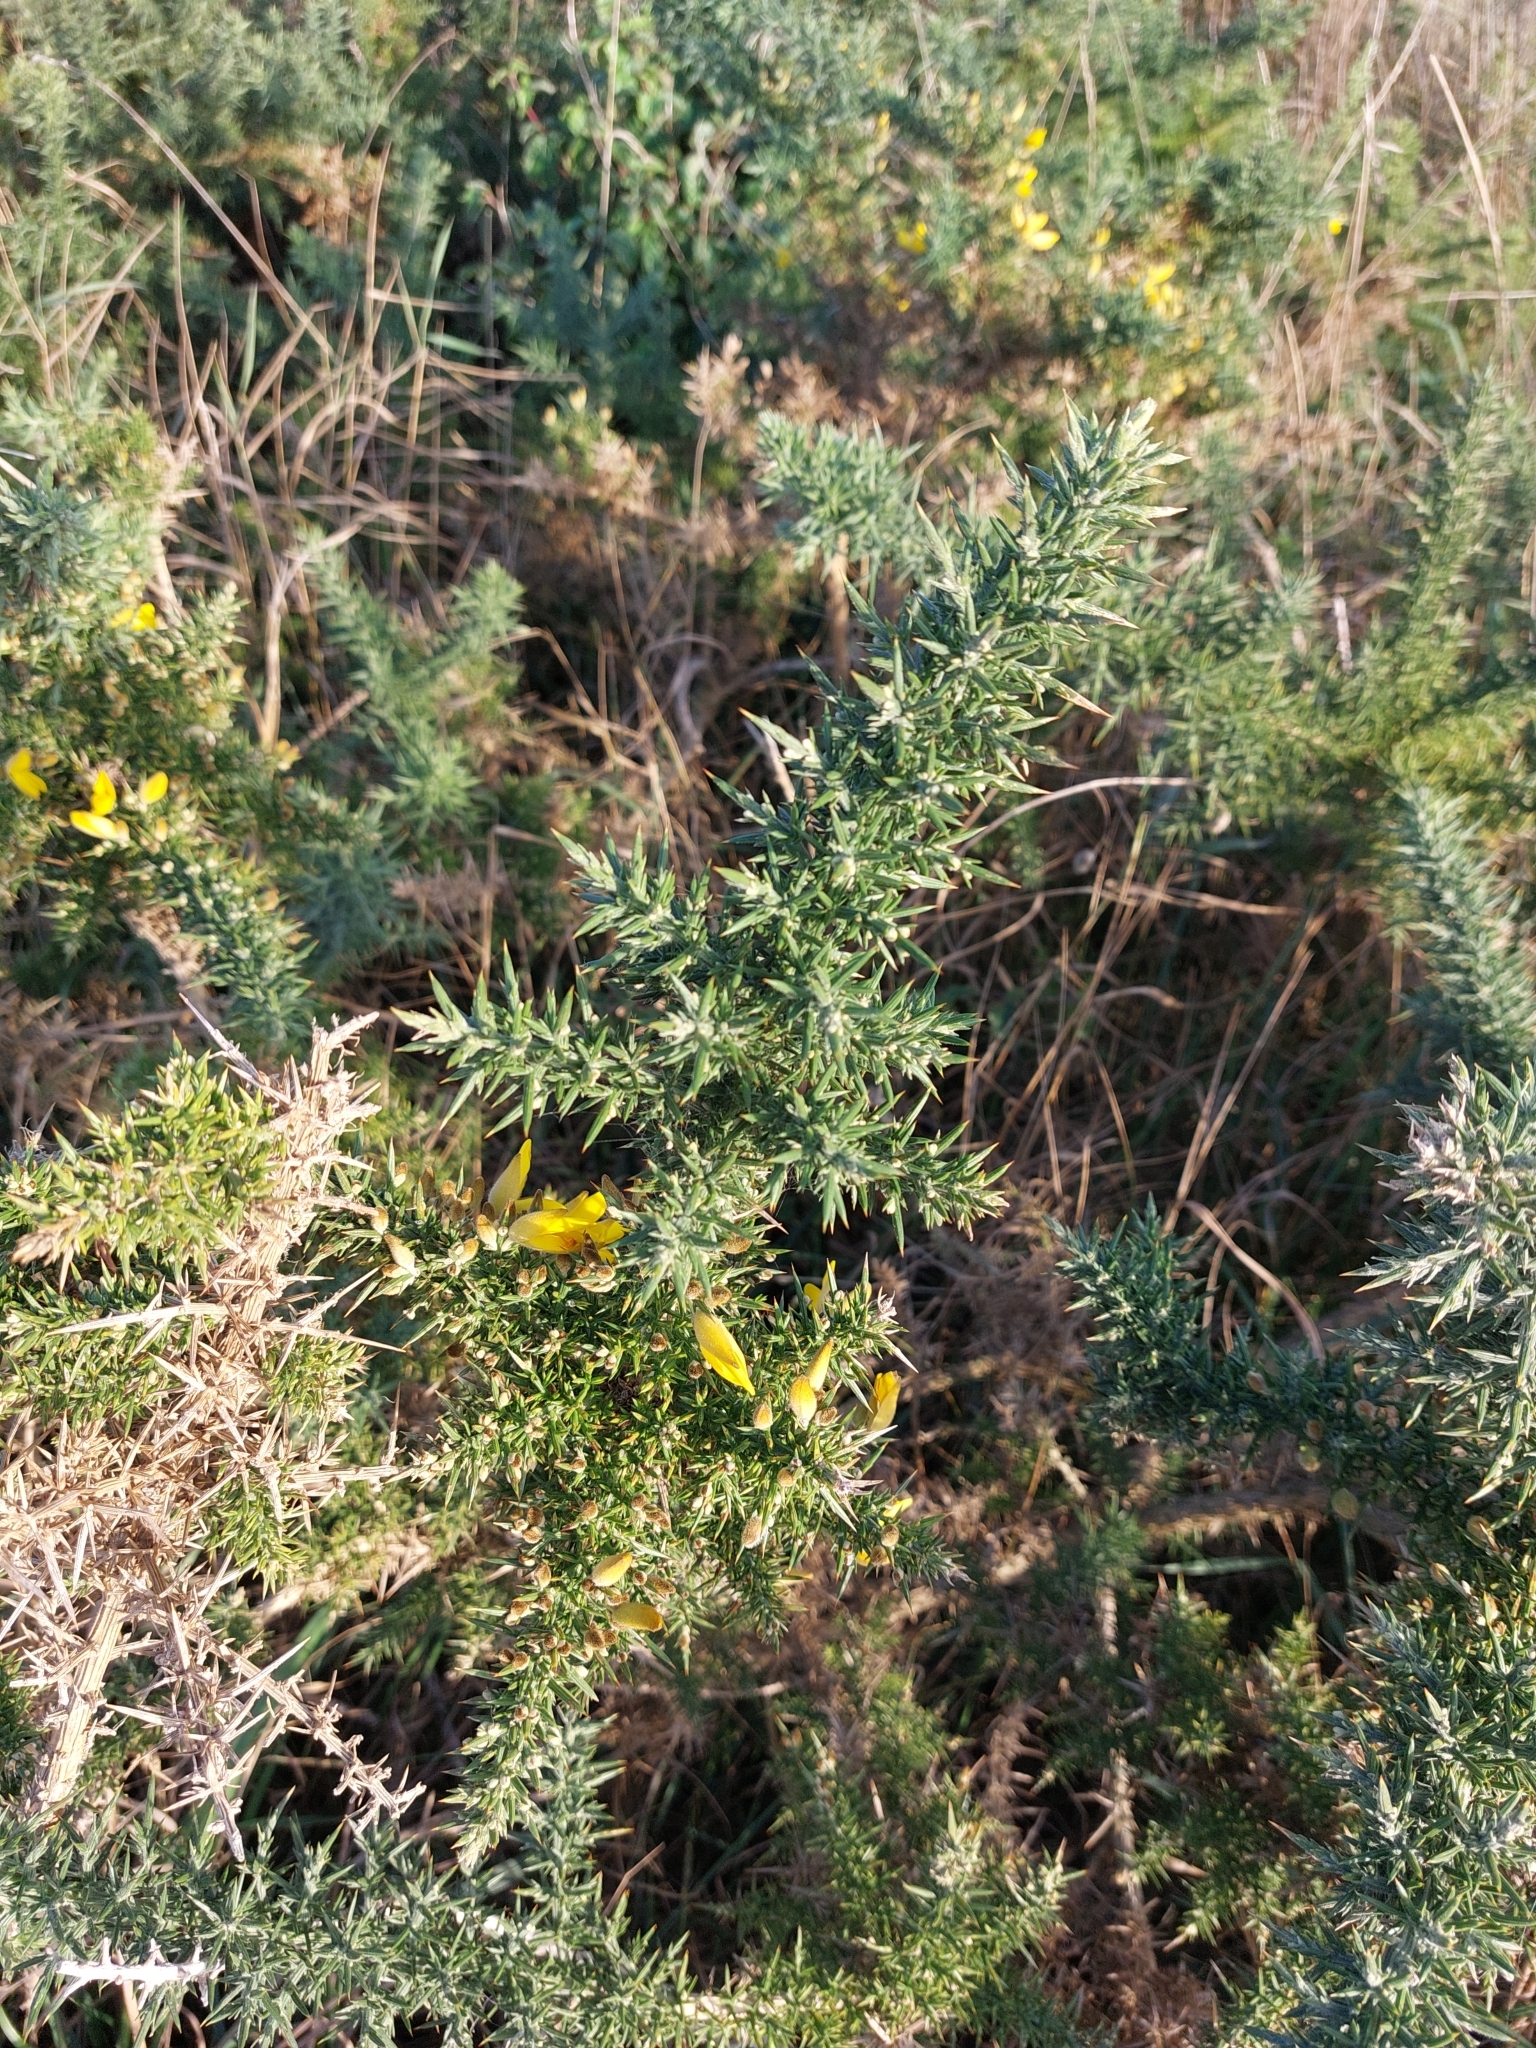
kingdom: Plantae
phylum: Tracheophyta
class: Magnoliopsida
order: Fabales
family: Fabaceae
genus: Ulex
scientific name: Ulex europaeus
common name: Common gorse
